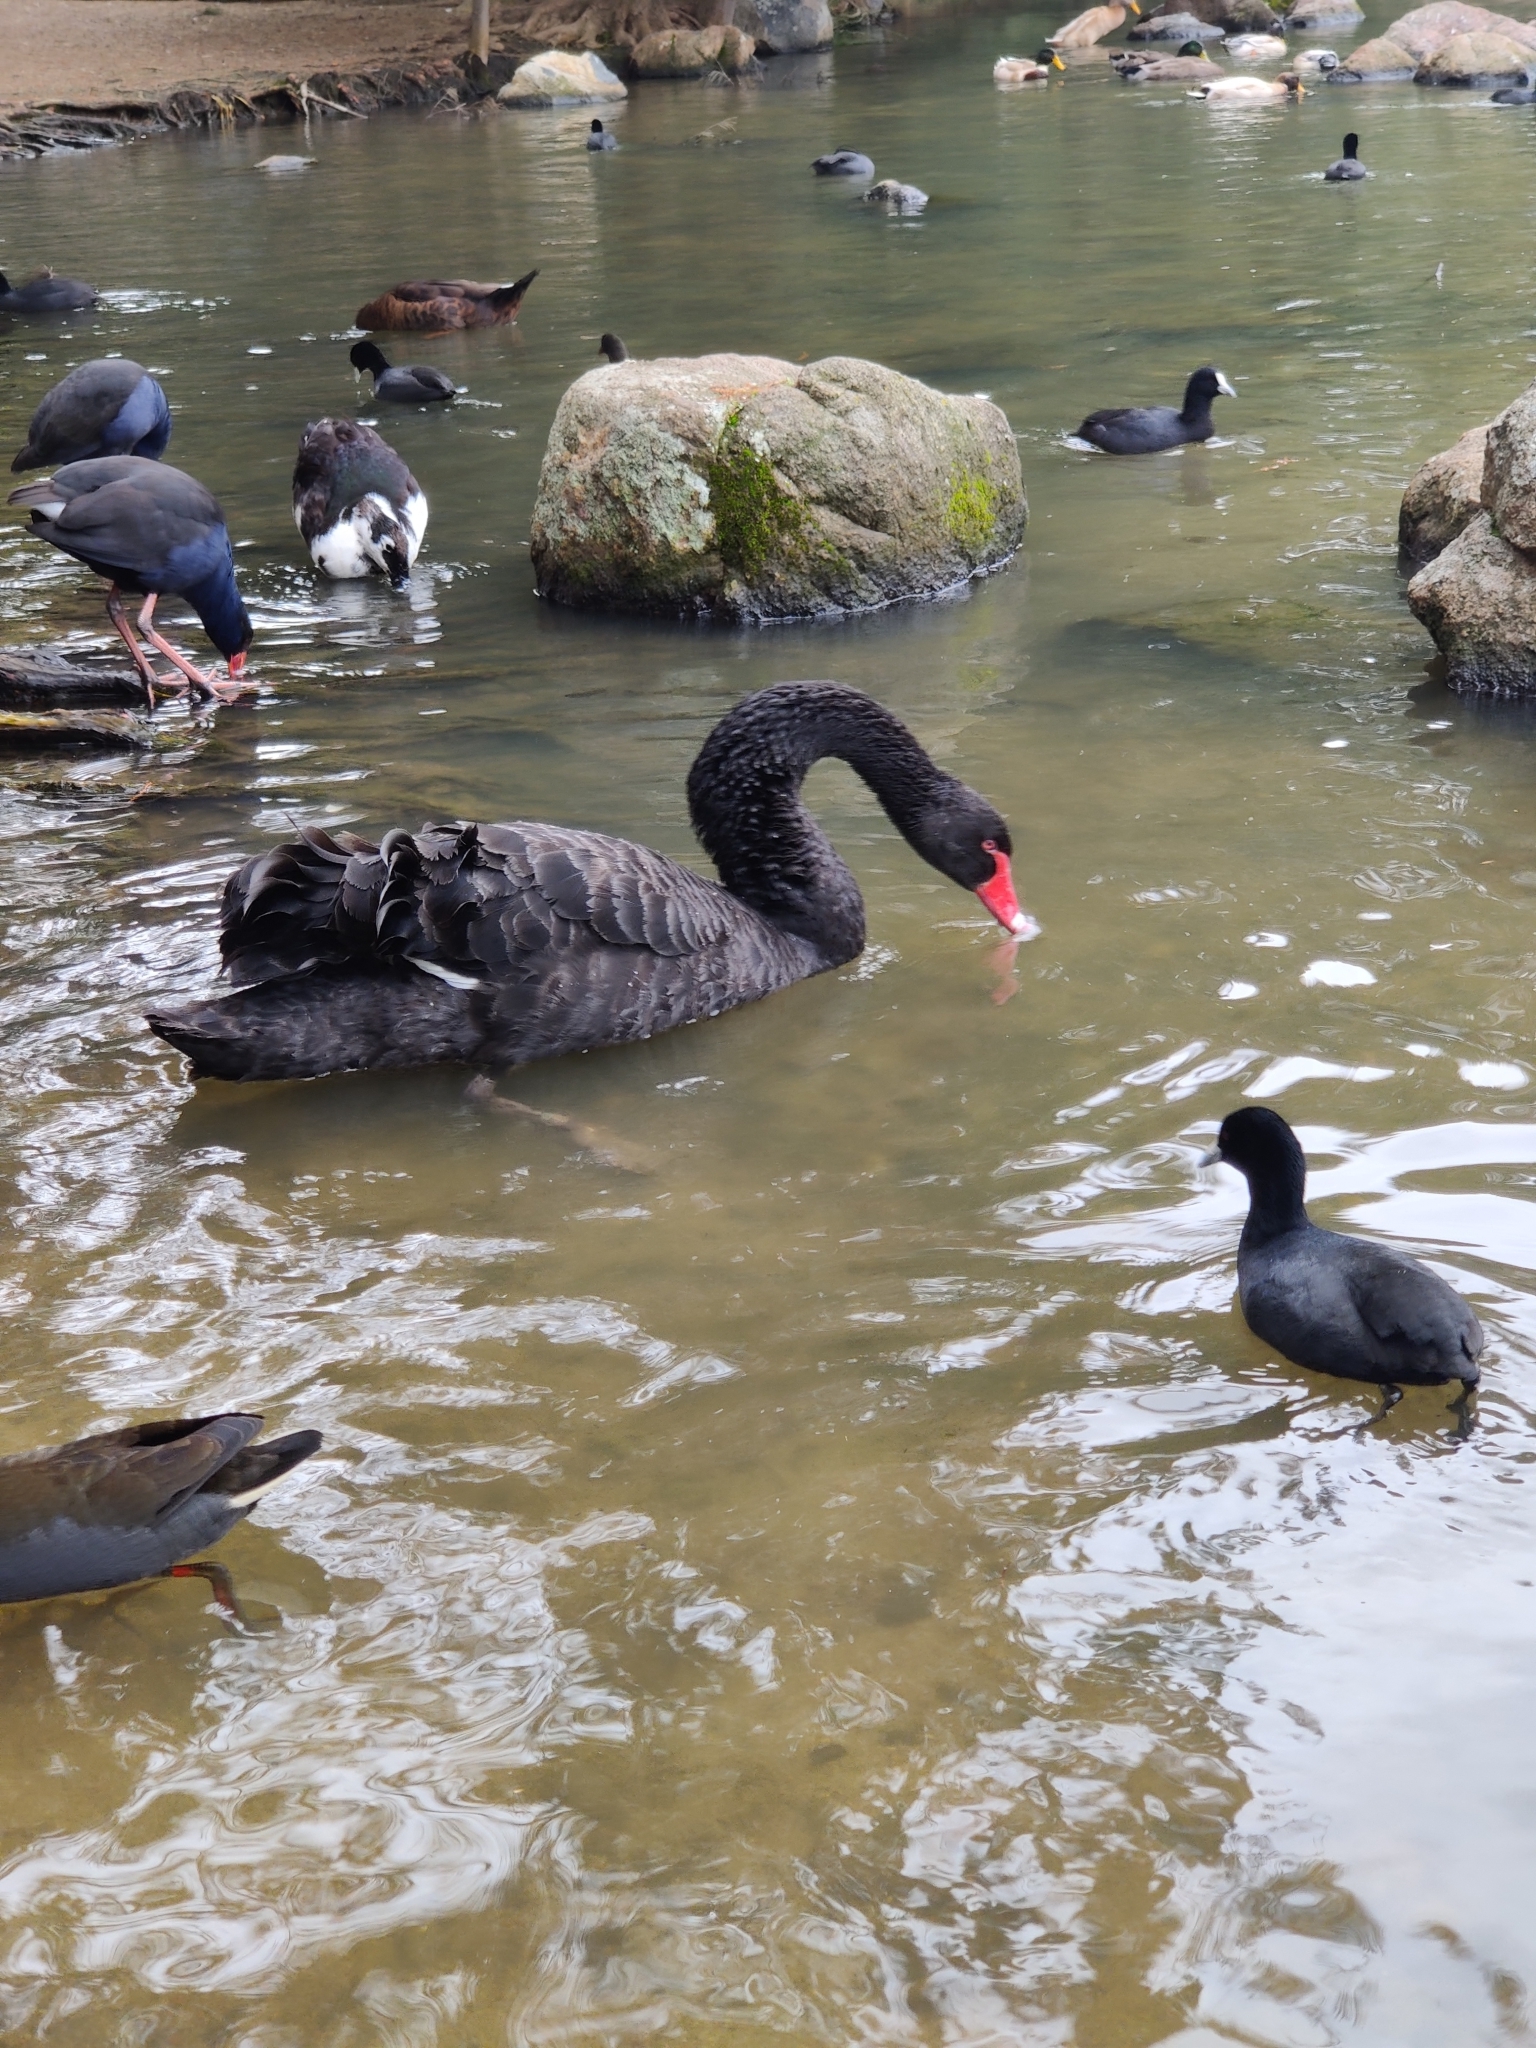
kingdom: Animalia
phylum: Chordata
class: Aves
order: Anseriformes
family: Anatidae
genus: Cygnus
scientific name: Cygnus atratus
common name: Black swan
